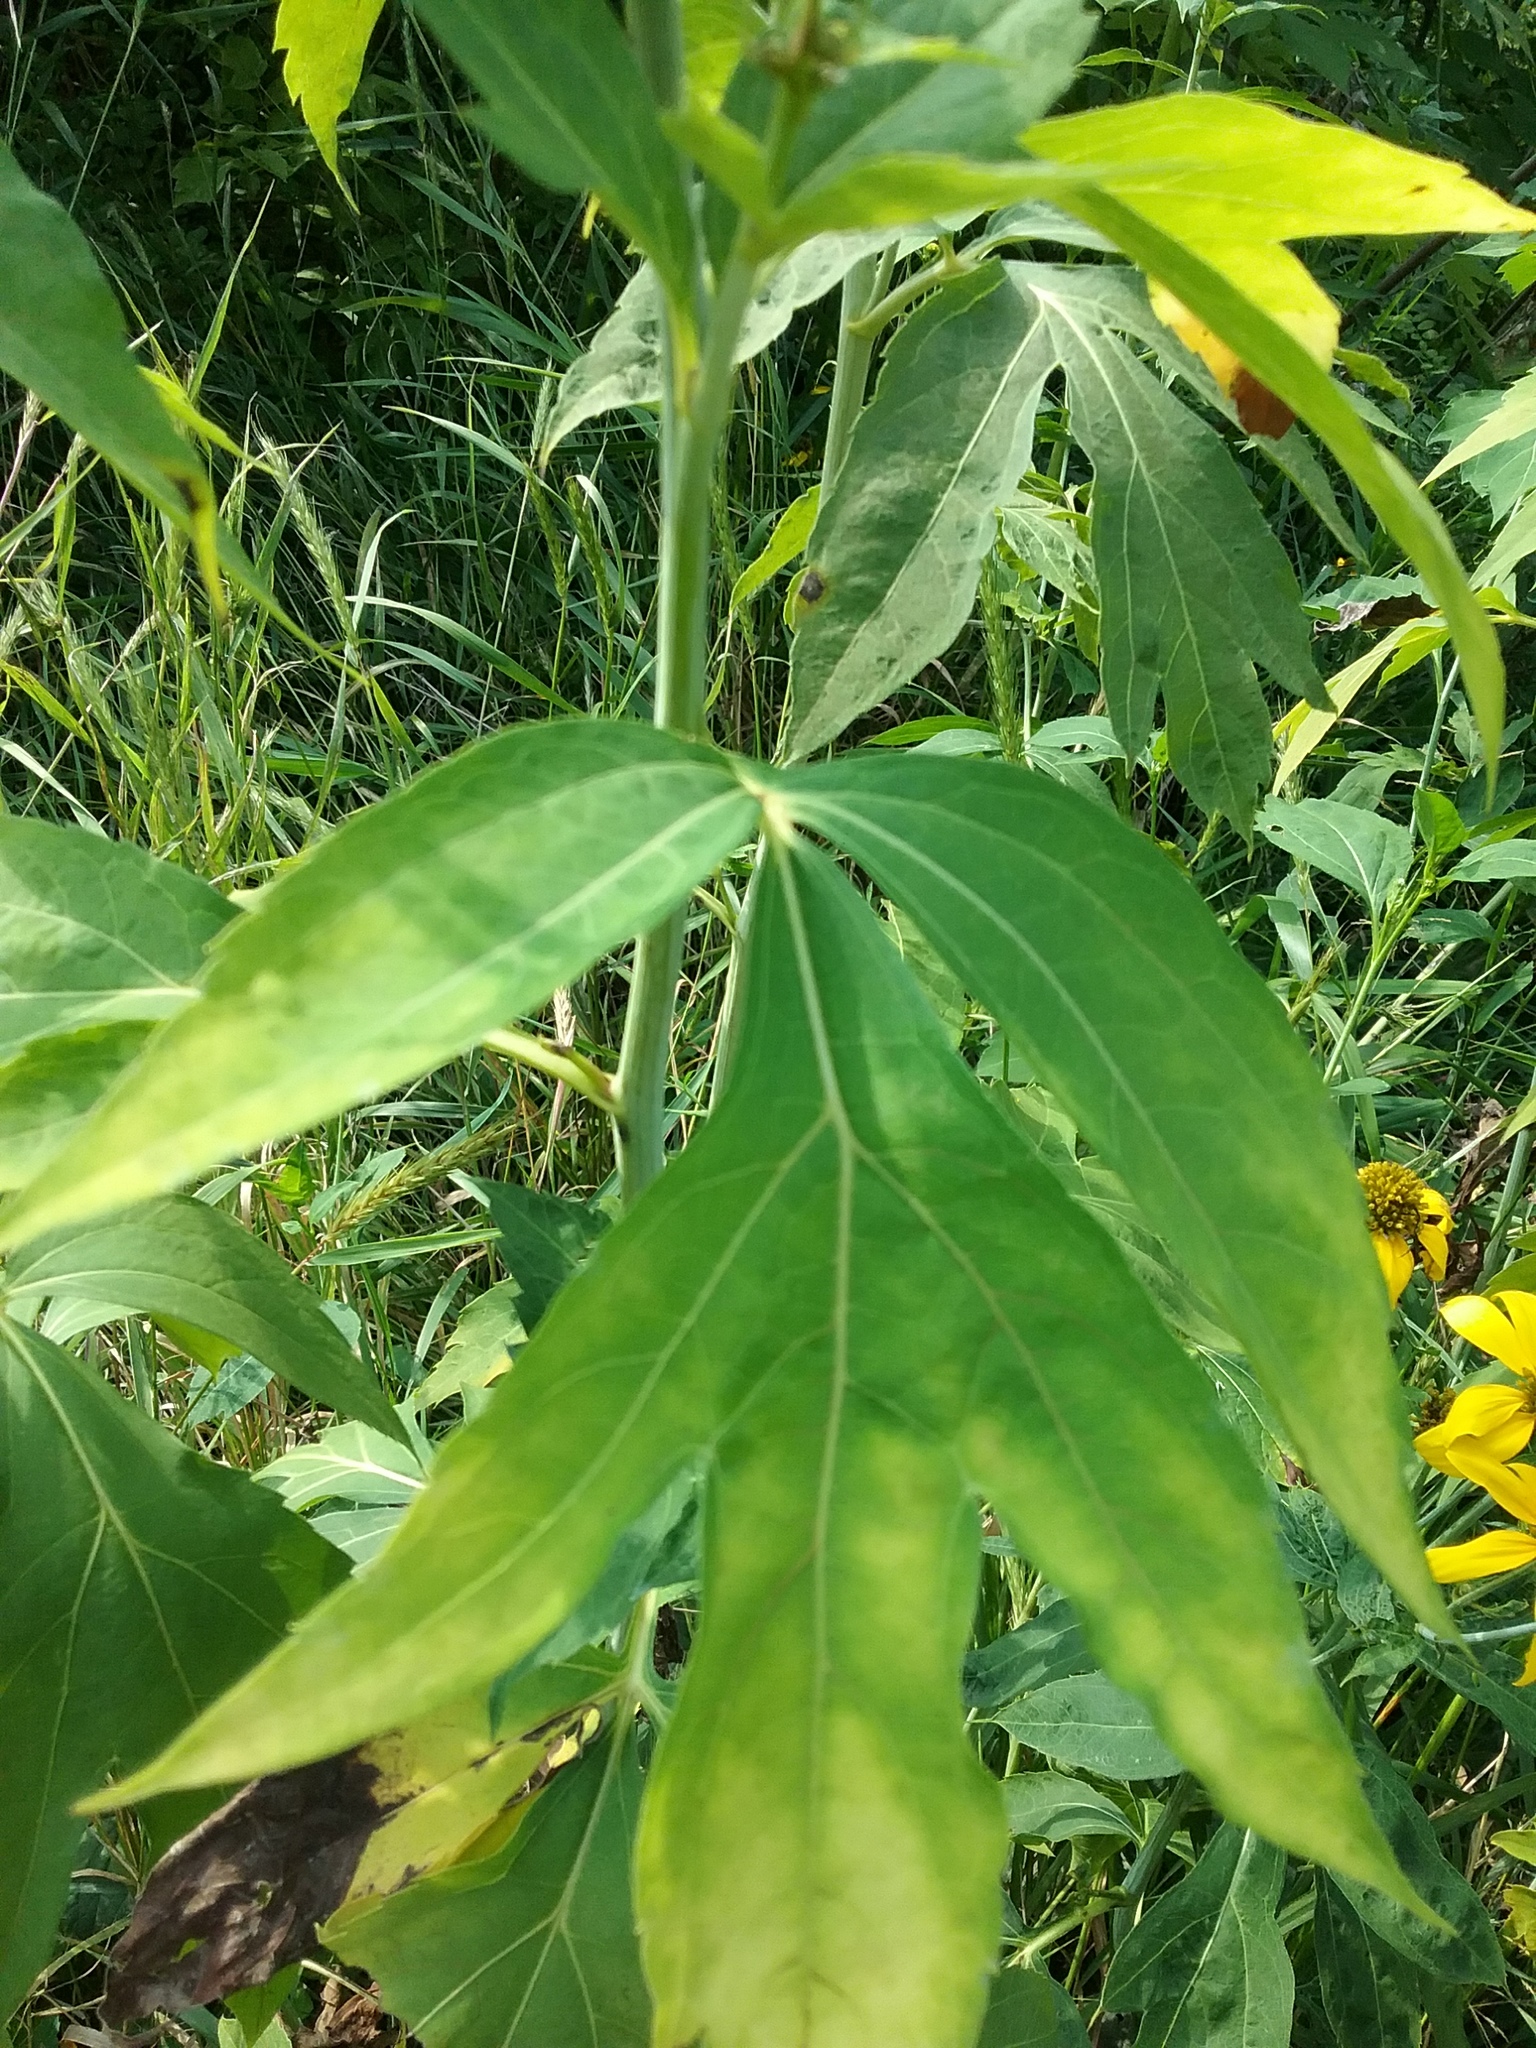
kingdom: Plantae
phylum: Tracheophyta
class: Magnoliopsida
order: Asterales
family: Asteraceae
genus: Rudbeckia
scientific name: Rudbeckia laciniata
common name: Coneflower
